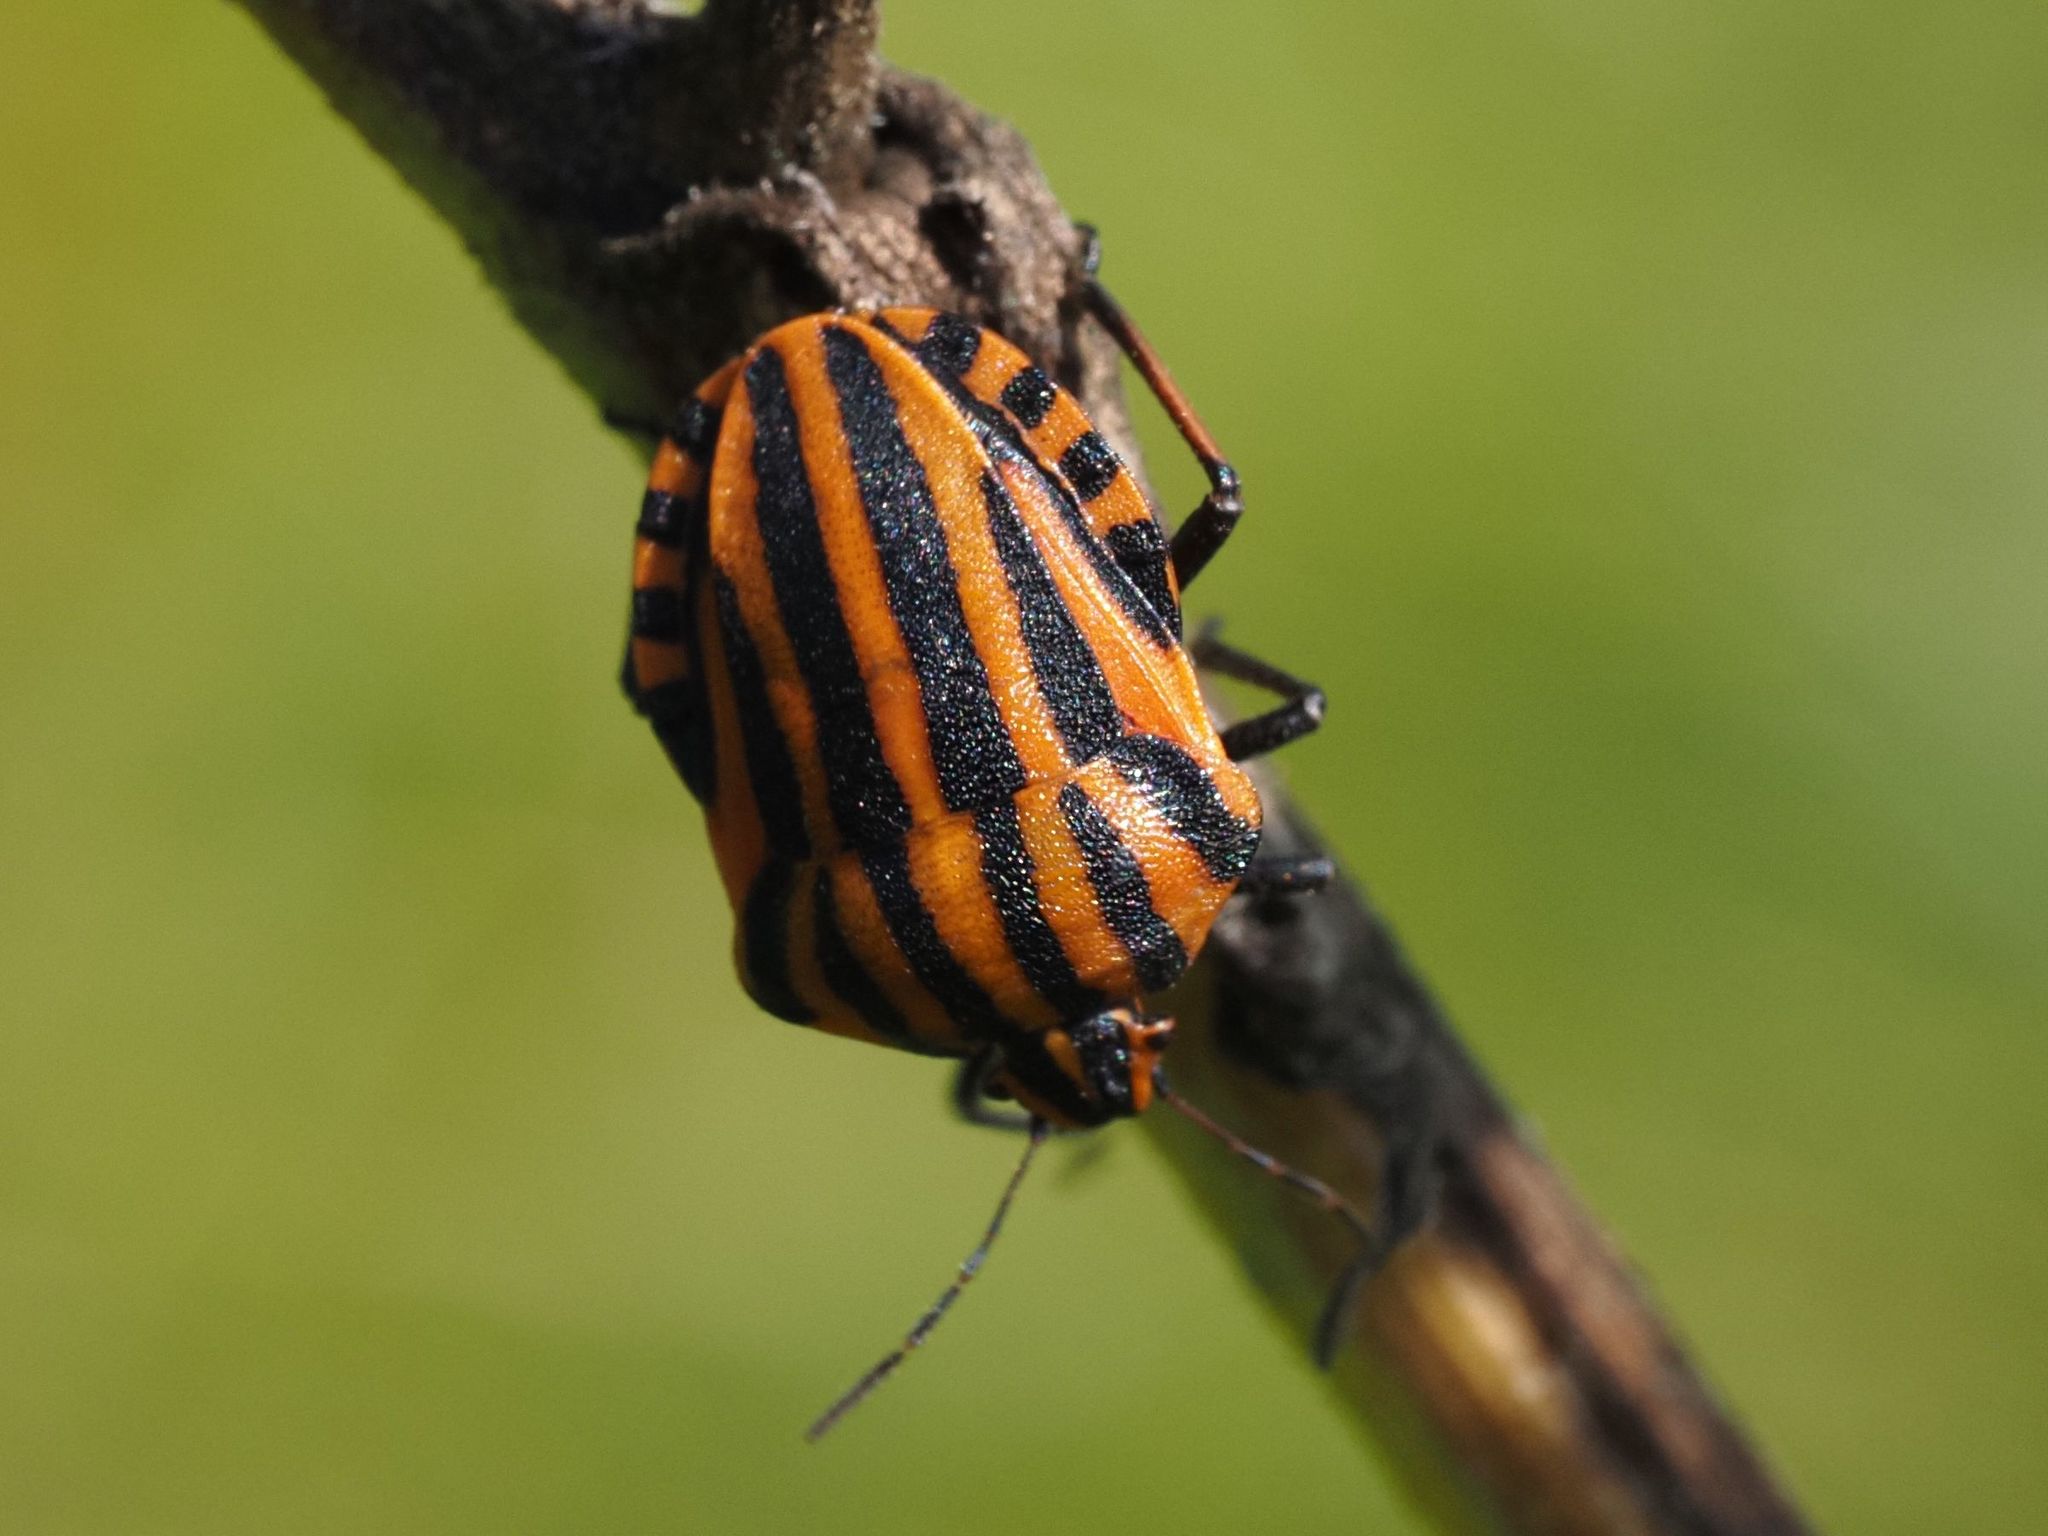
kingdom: Animalia
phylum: Arthropoda
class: Insecta
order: Hemiptera
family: Pentatomidae
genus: Graphosoma
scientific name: Graphosoma italicum
